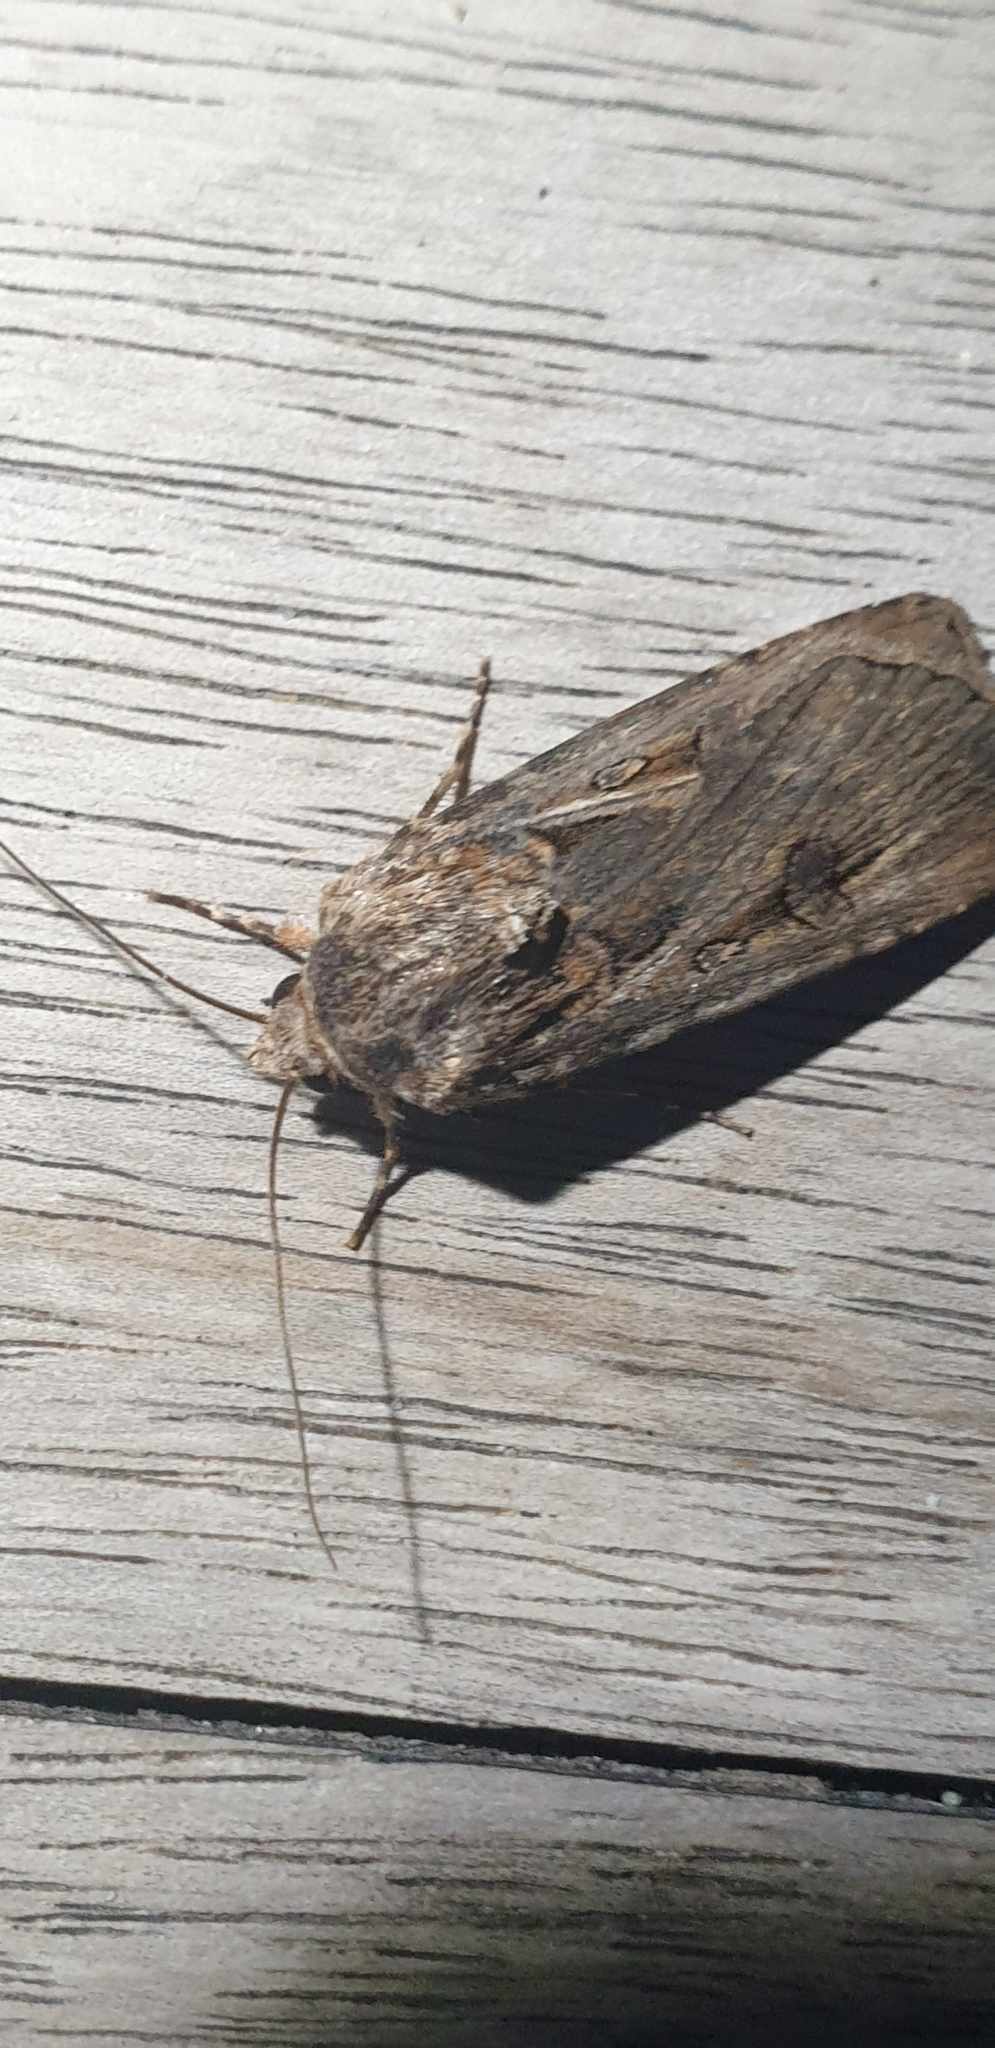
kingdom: Animalia
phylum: Arthropoda
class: Insecta
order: Lepidoptera
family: Noctuidae
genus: Agrotis
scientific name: Agrotis munda
